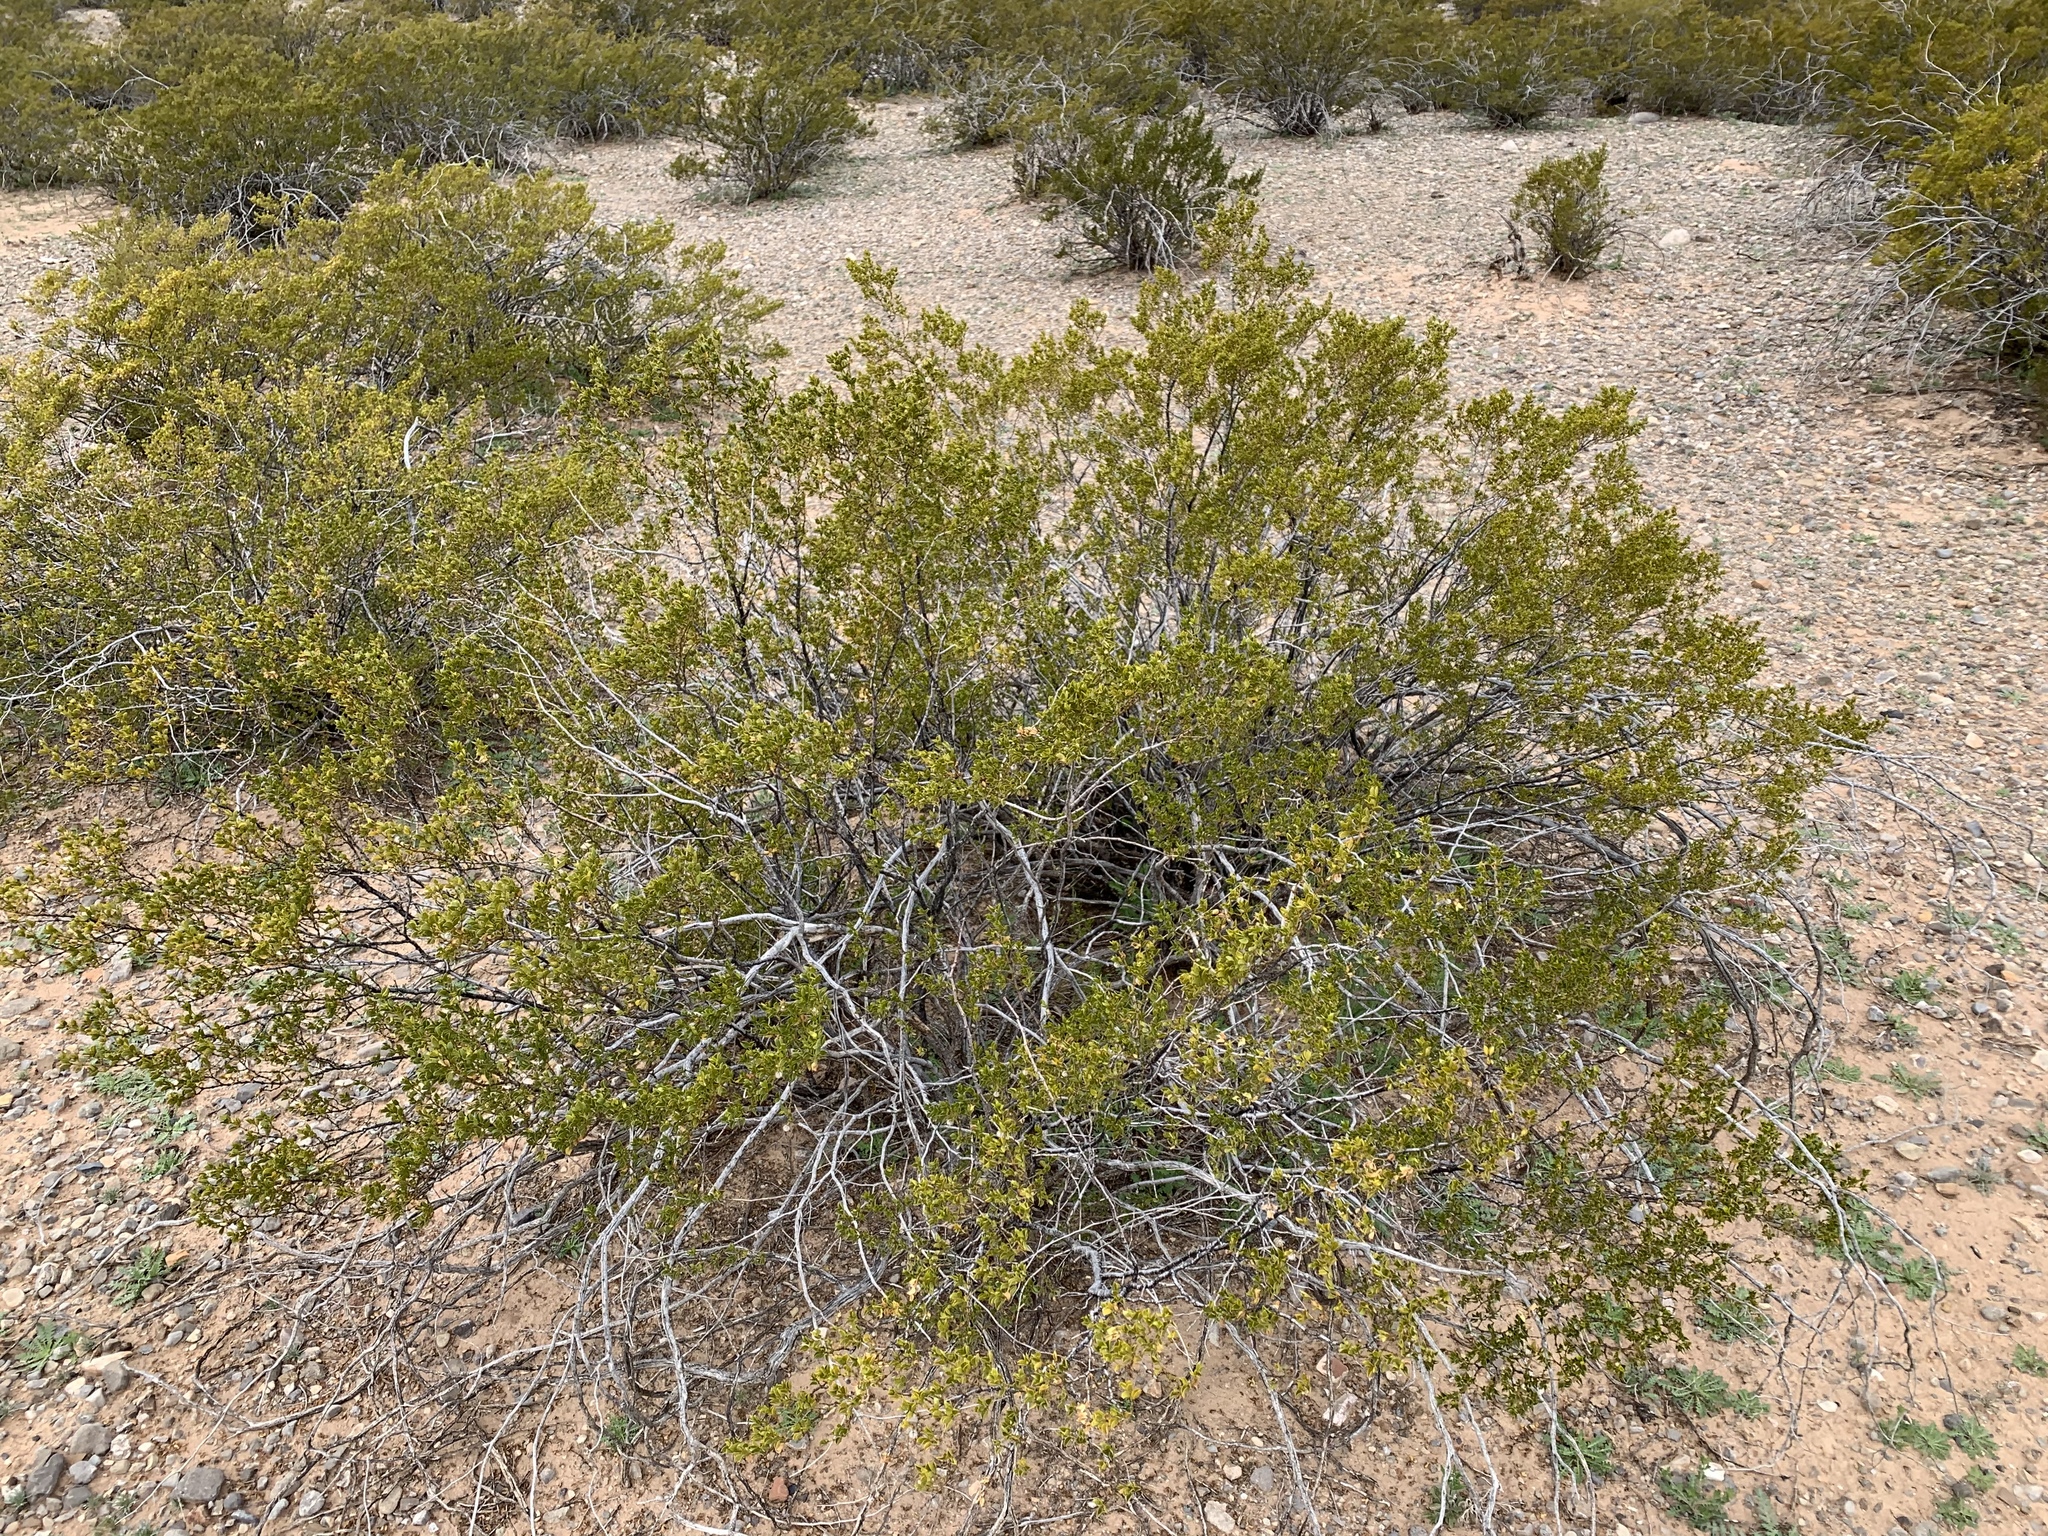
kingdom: Plantae
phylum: Tracheophyta
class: Magnoliopsida
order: Zygophyllales
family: Zygophyllaceae
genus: Larrea
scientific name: Larrea tridentata
